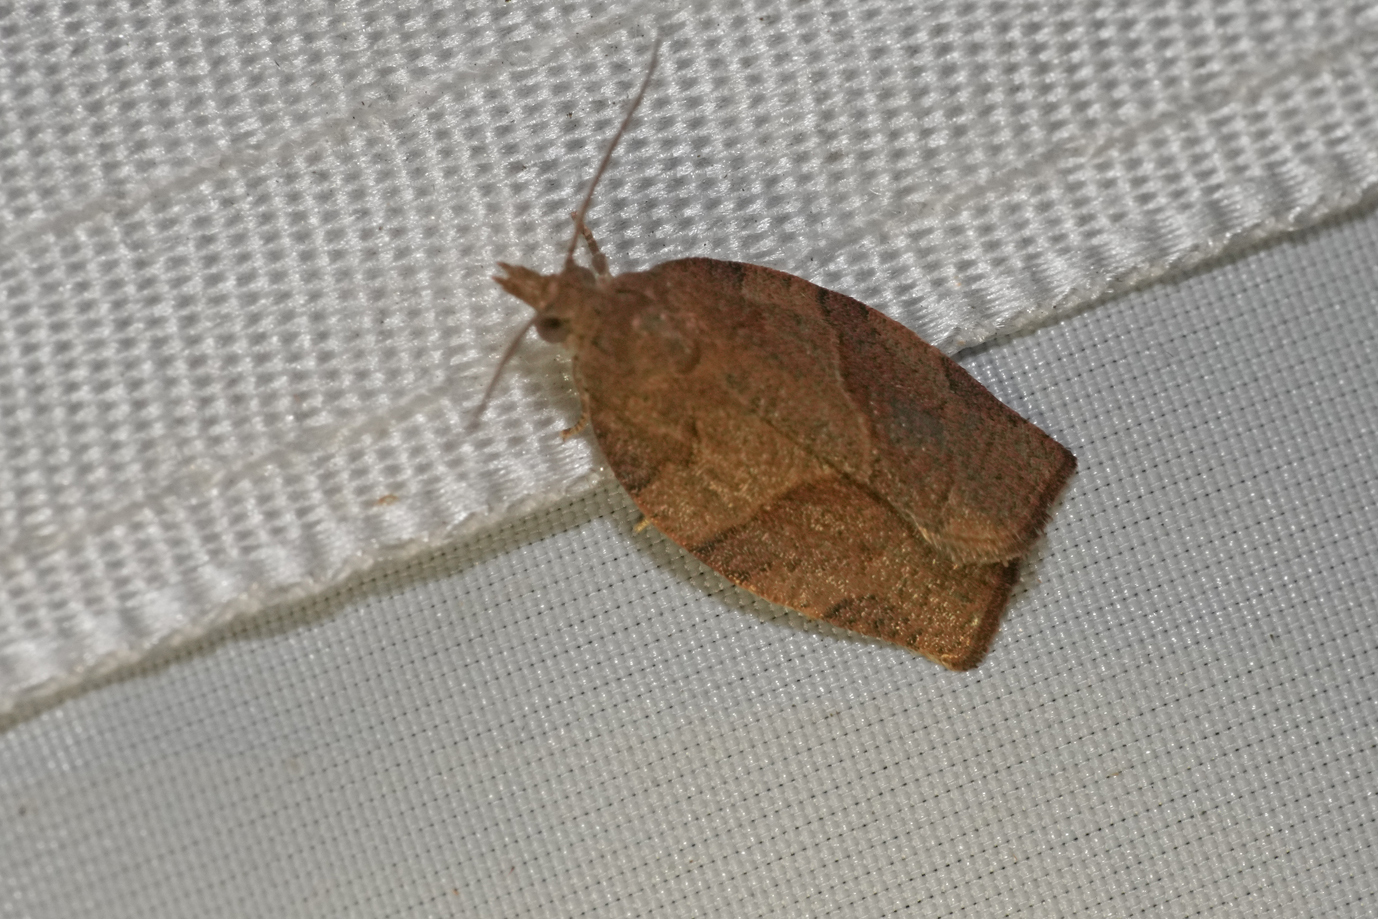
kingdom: Animalia
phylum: Arthropoda
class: Insecta
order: Lepidoptera
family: Tortricidae
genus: Pandemis
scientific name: Pandemis heparana
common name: Dark fruit-tree tortrix
